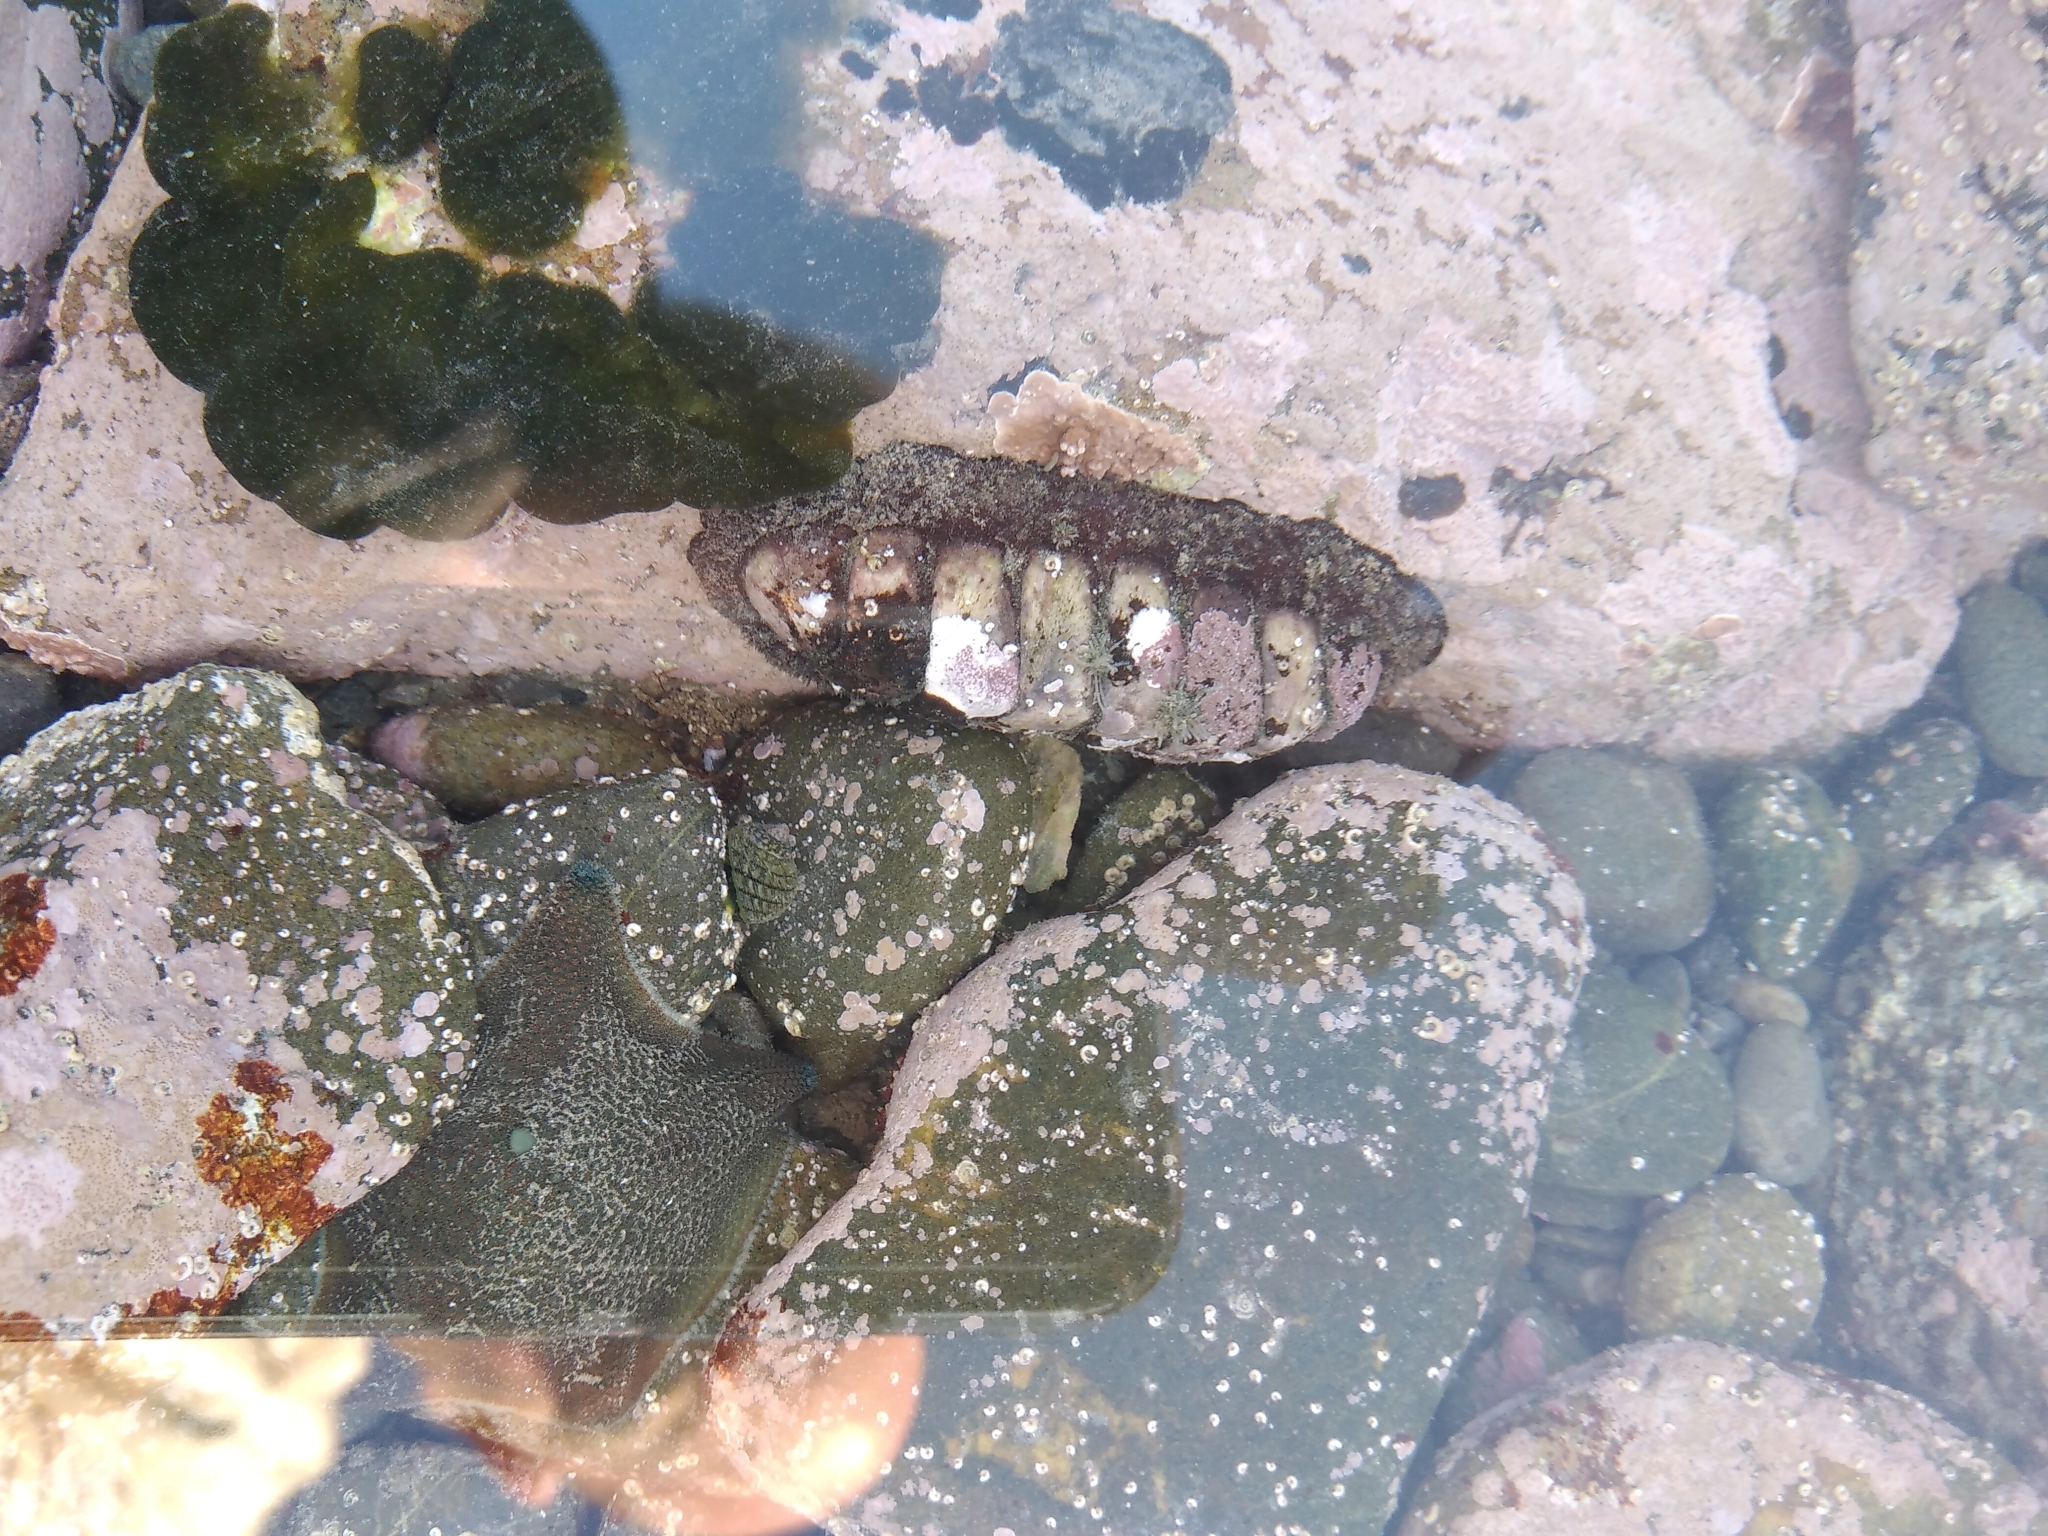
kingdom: Animalia
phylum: Mollusca
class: Polyplacophora
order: Callochitonida
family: Callochitonidae
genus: Eudoxochiton
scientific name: Eudoxochiton nobilis
